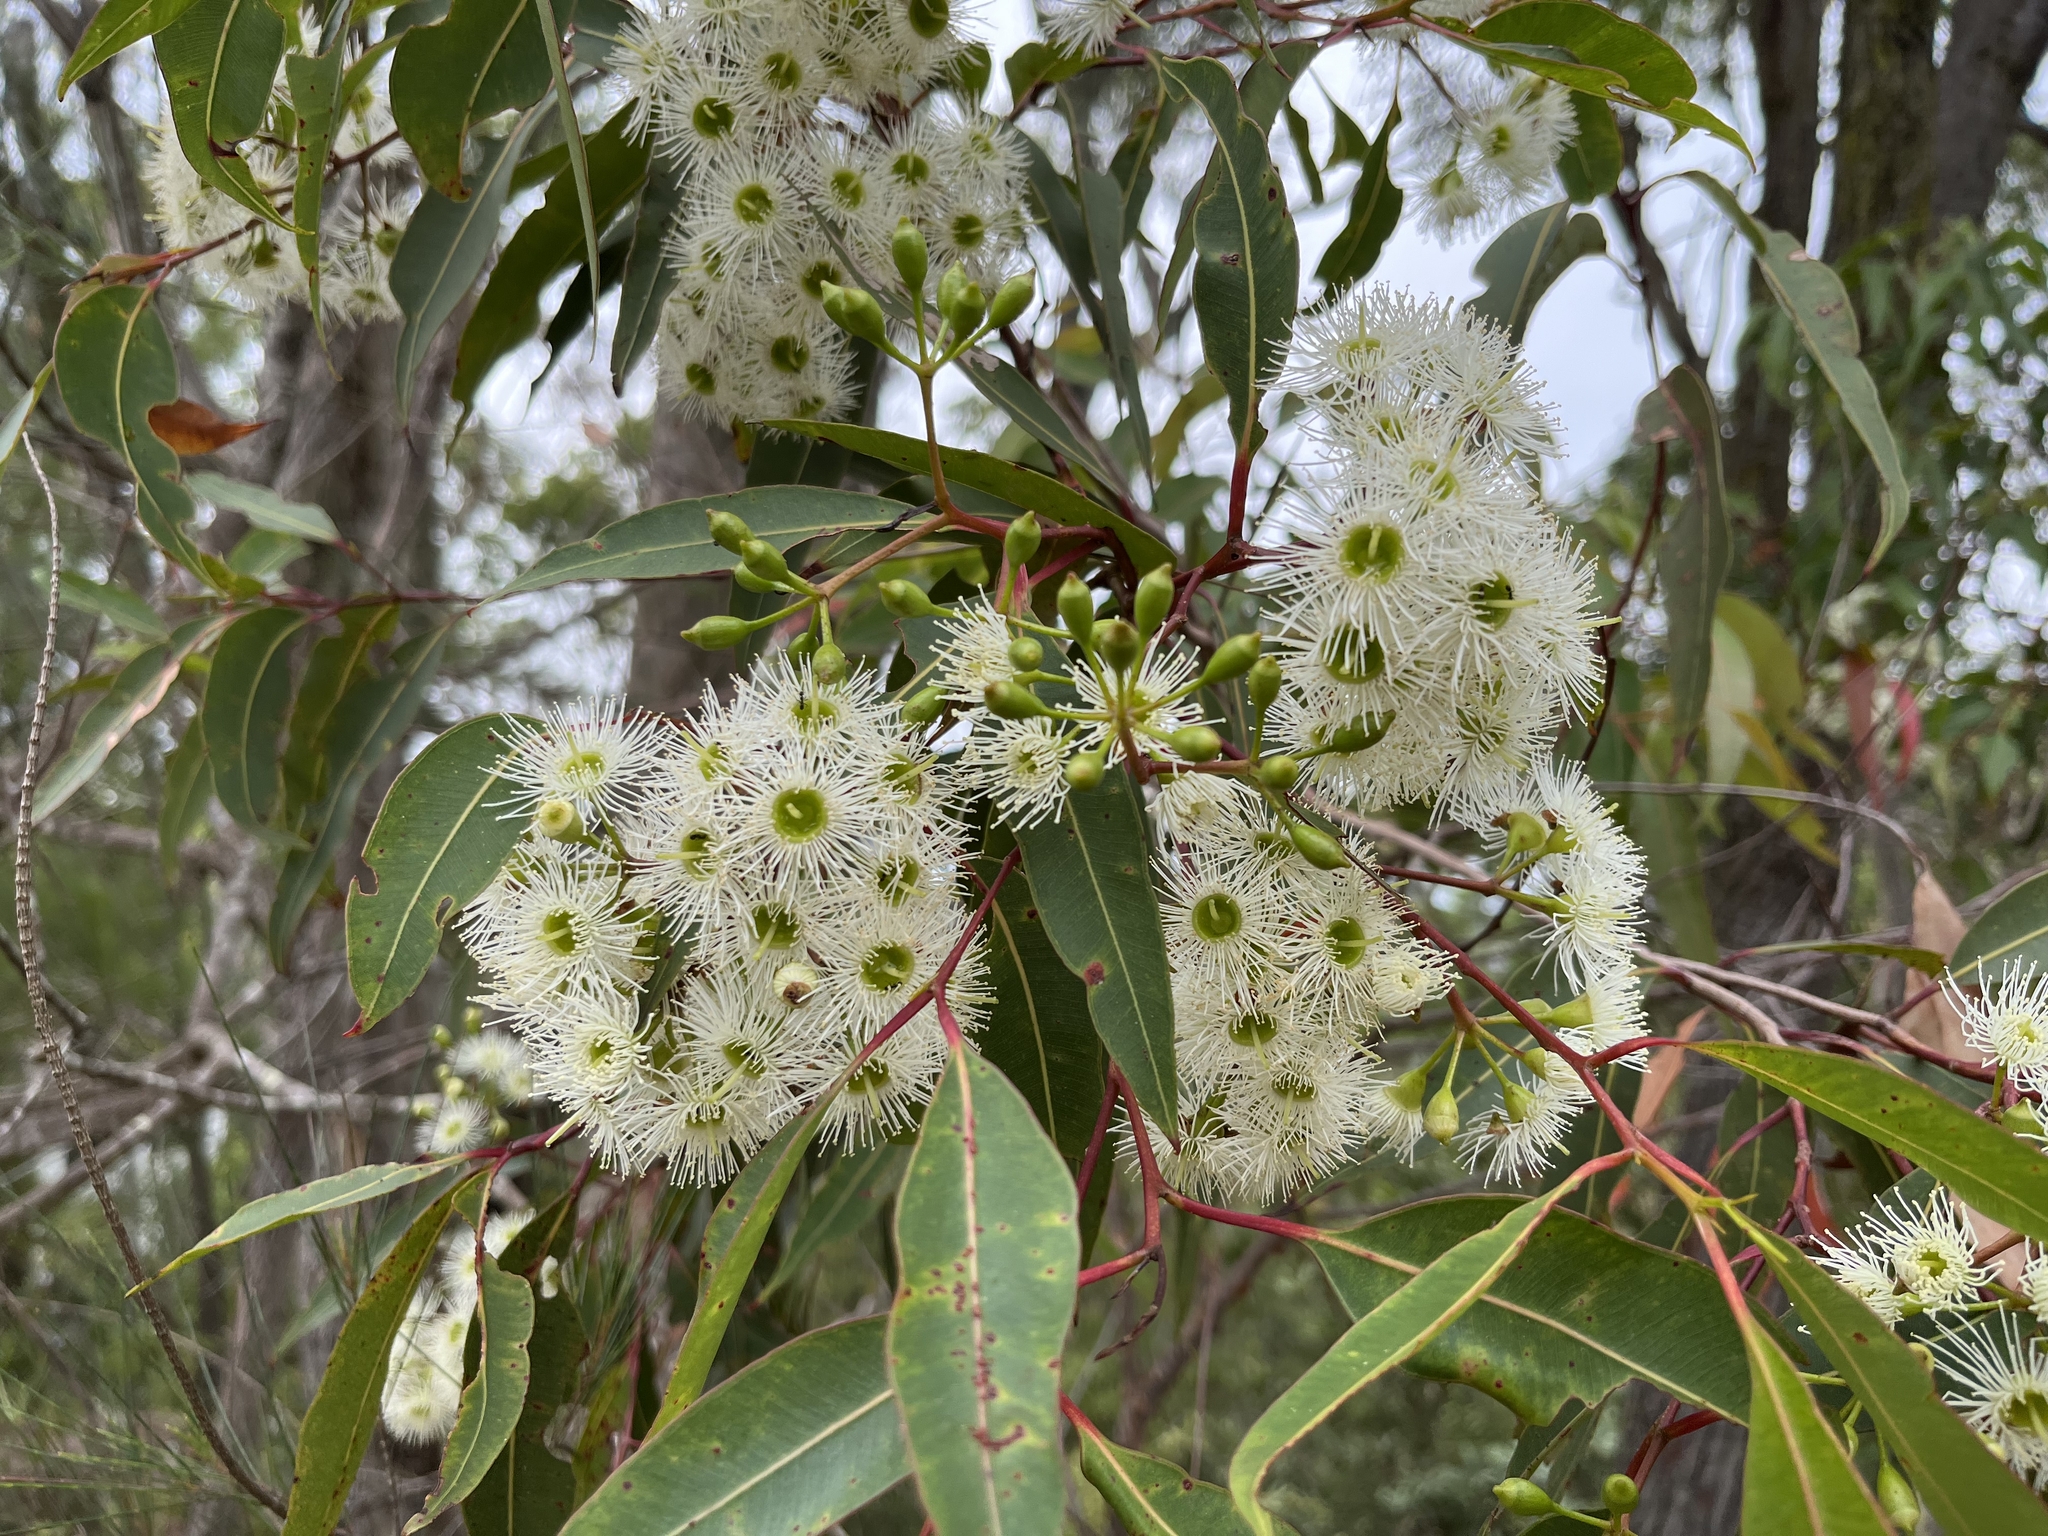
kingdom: Plantae
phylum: Tracheophyta
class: Magnoliopsida
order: Myrtales
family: Myrtaceae
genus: Corymbia
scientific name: Corymbia gummifera
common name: Red bloodwood
